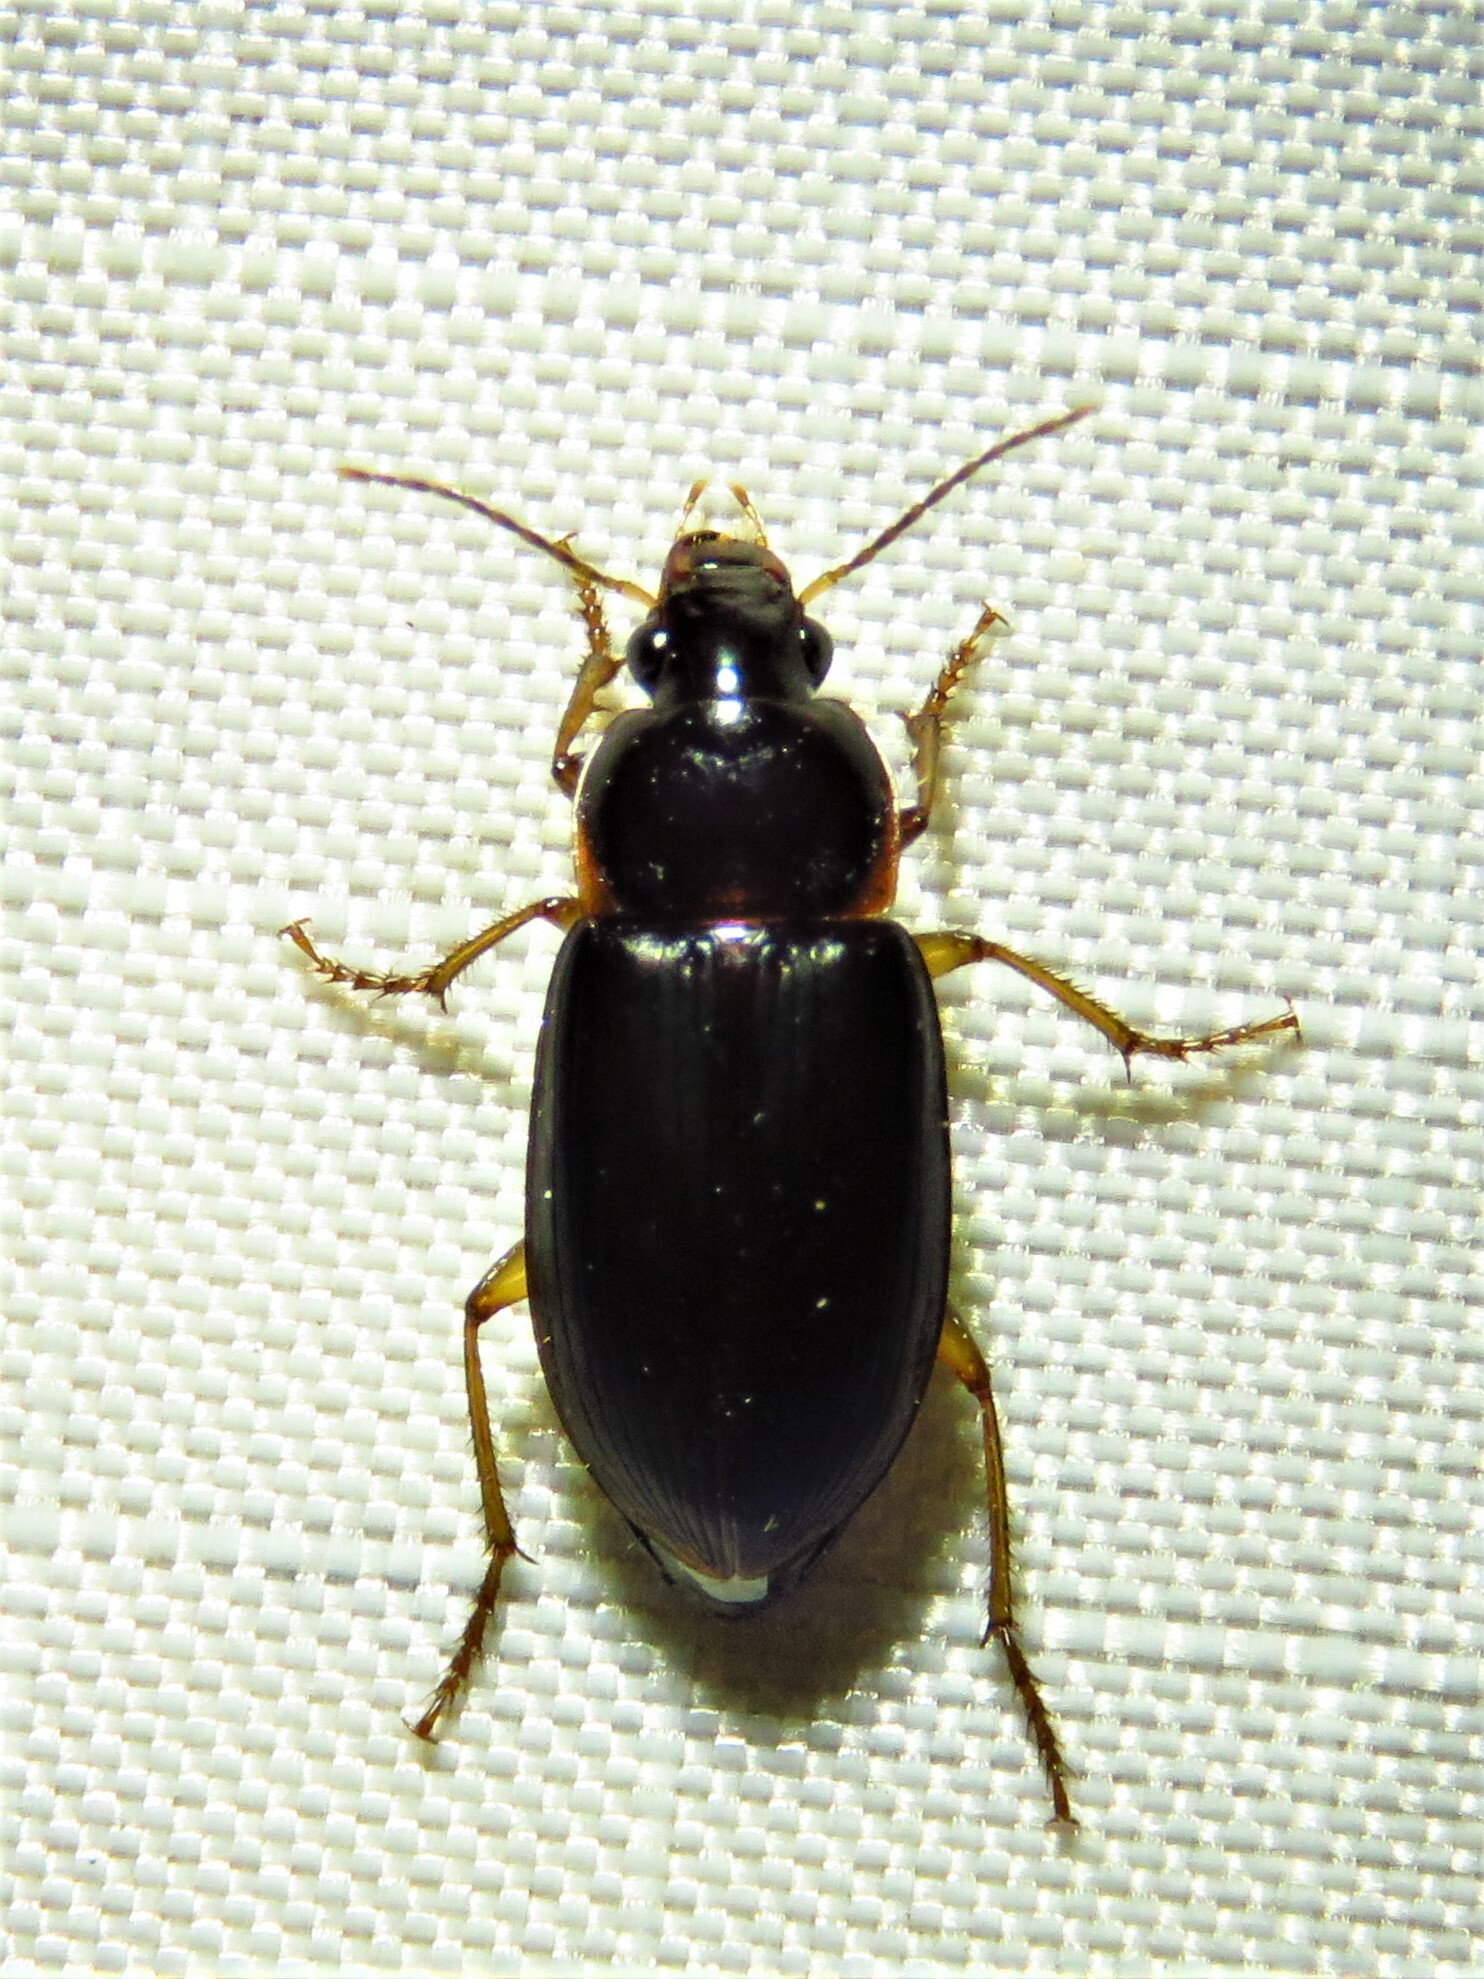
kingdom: Animalia
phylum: Arthropoda
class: Insecta
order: Coleoptera
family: Carabidae
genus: Notiobia
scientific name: Notiobia terminata
